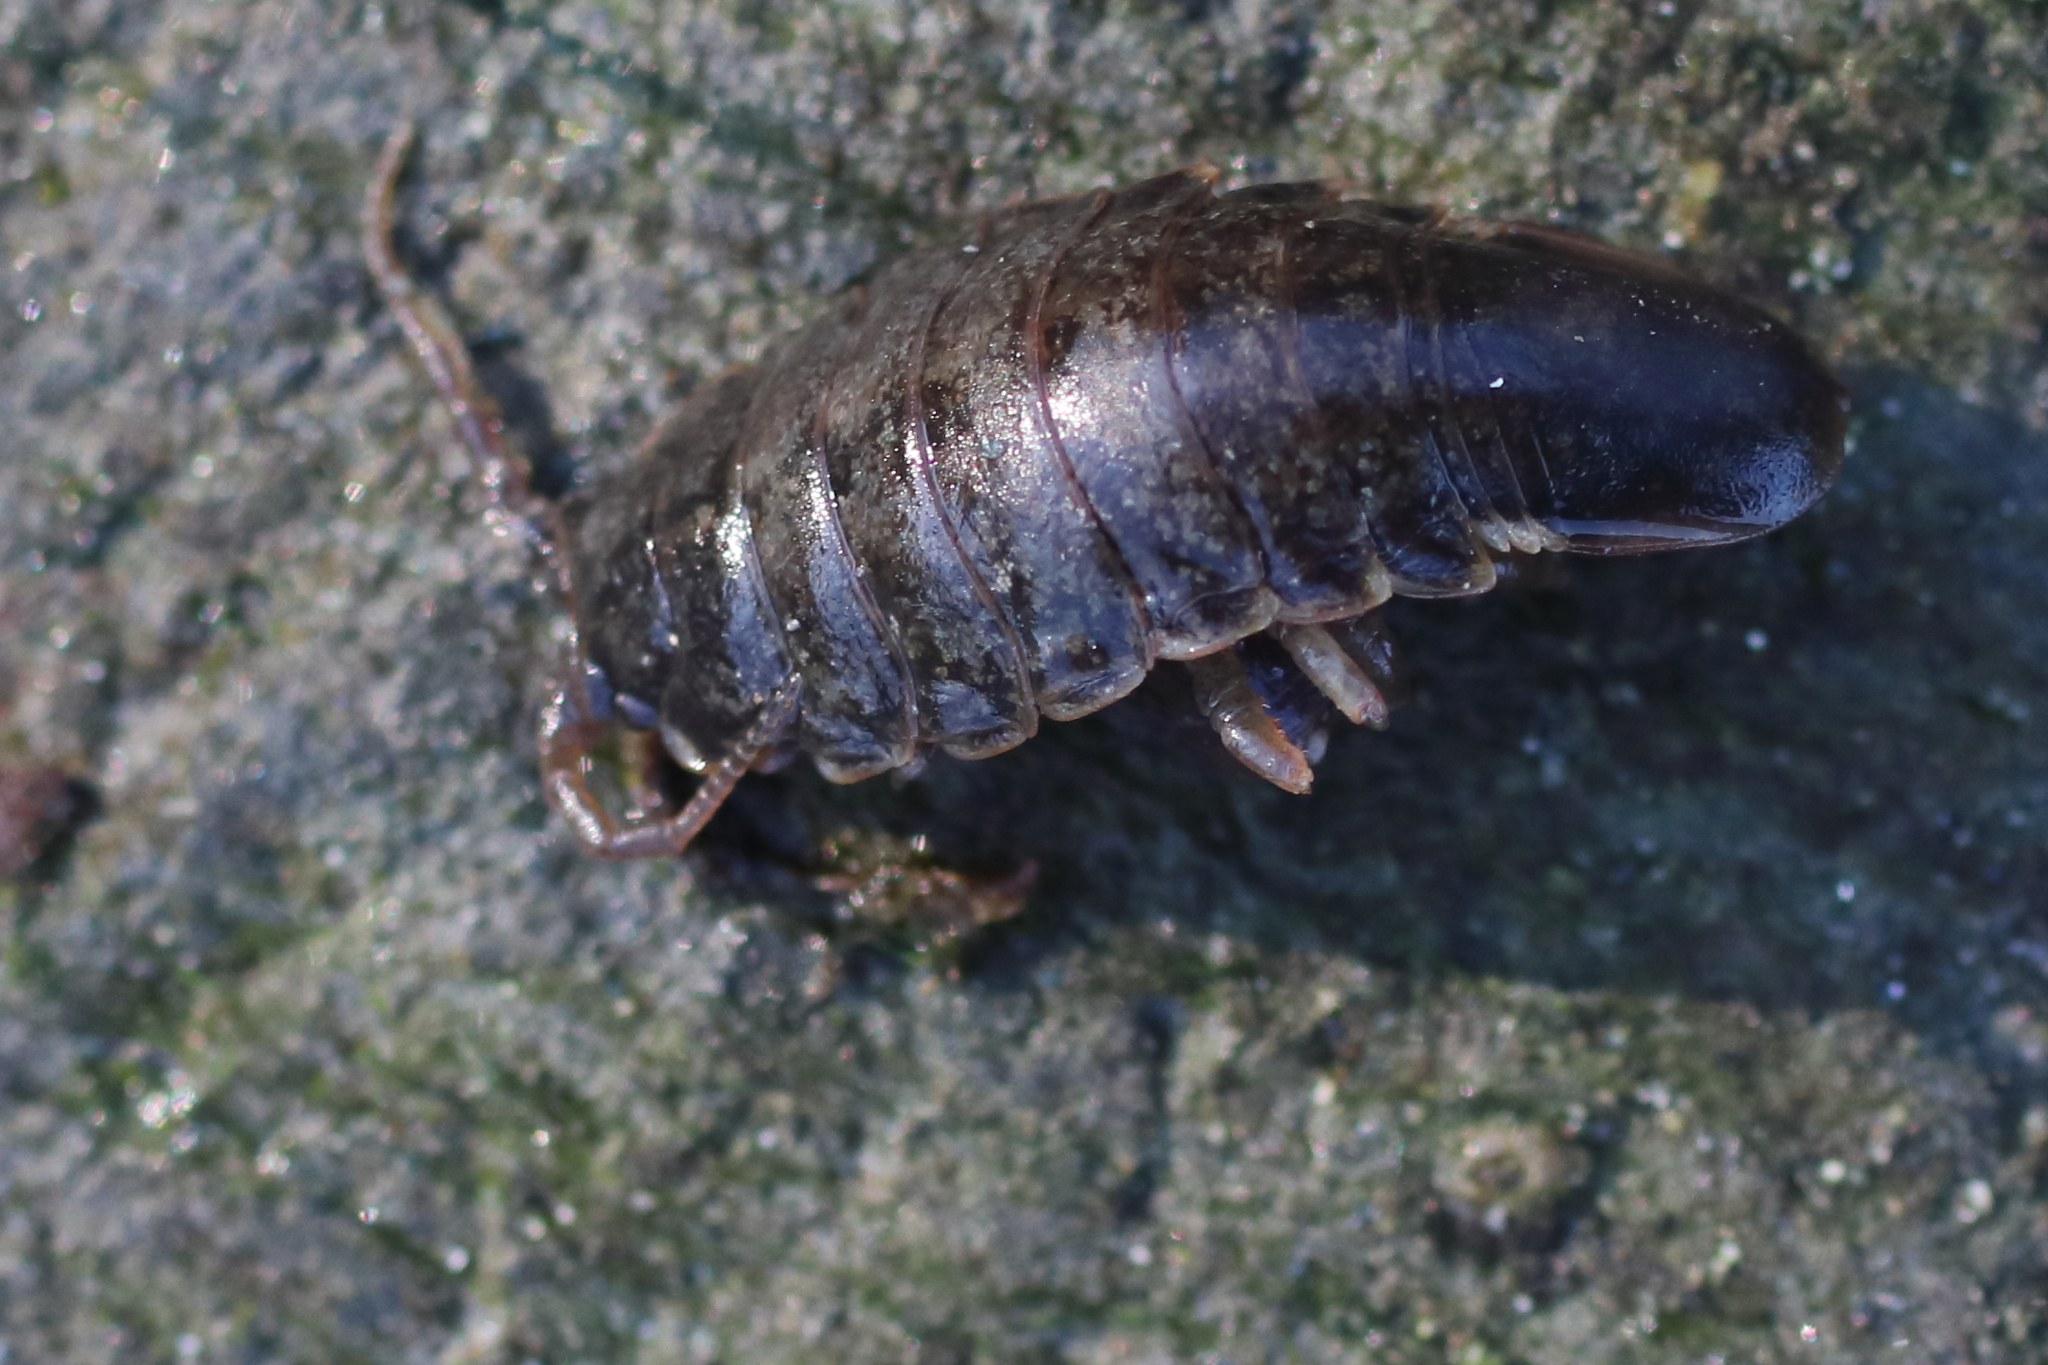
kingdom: Animalia
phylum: Arthropoda
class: Malacostraca
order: Isopoda
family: Idoteidae
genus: Pentidotea
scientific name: Pentidotea wosnesenskii
